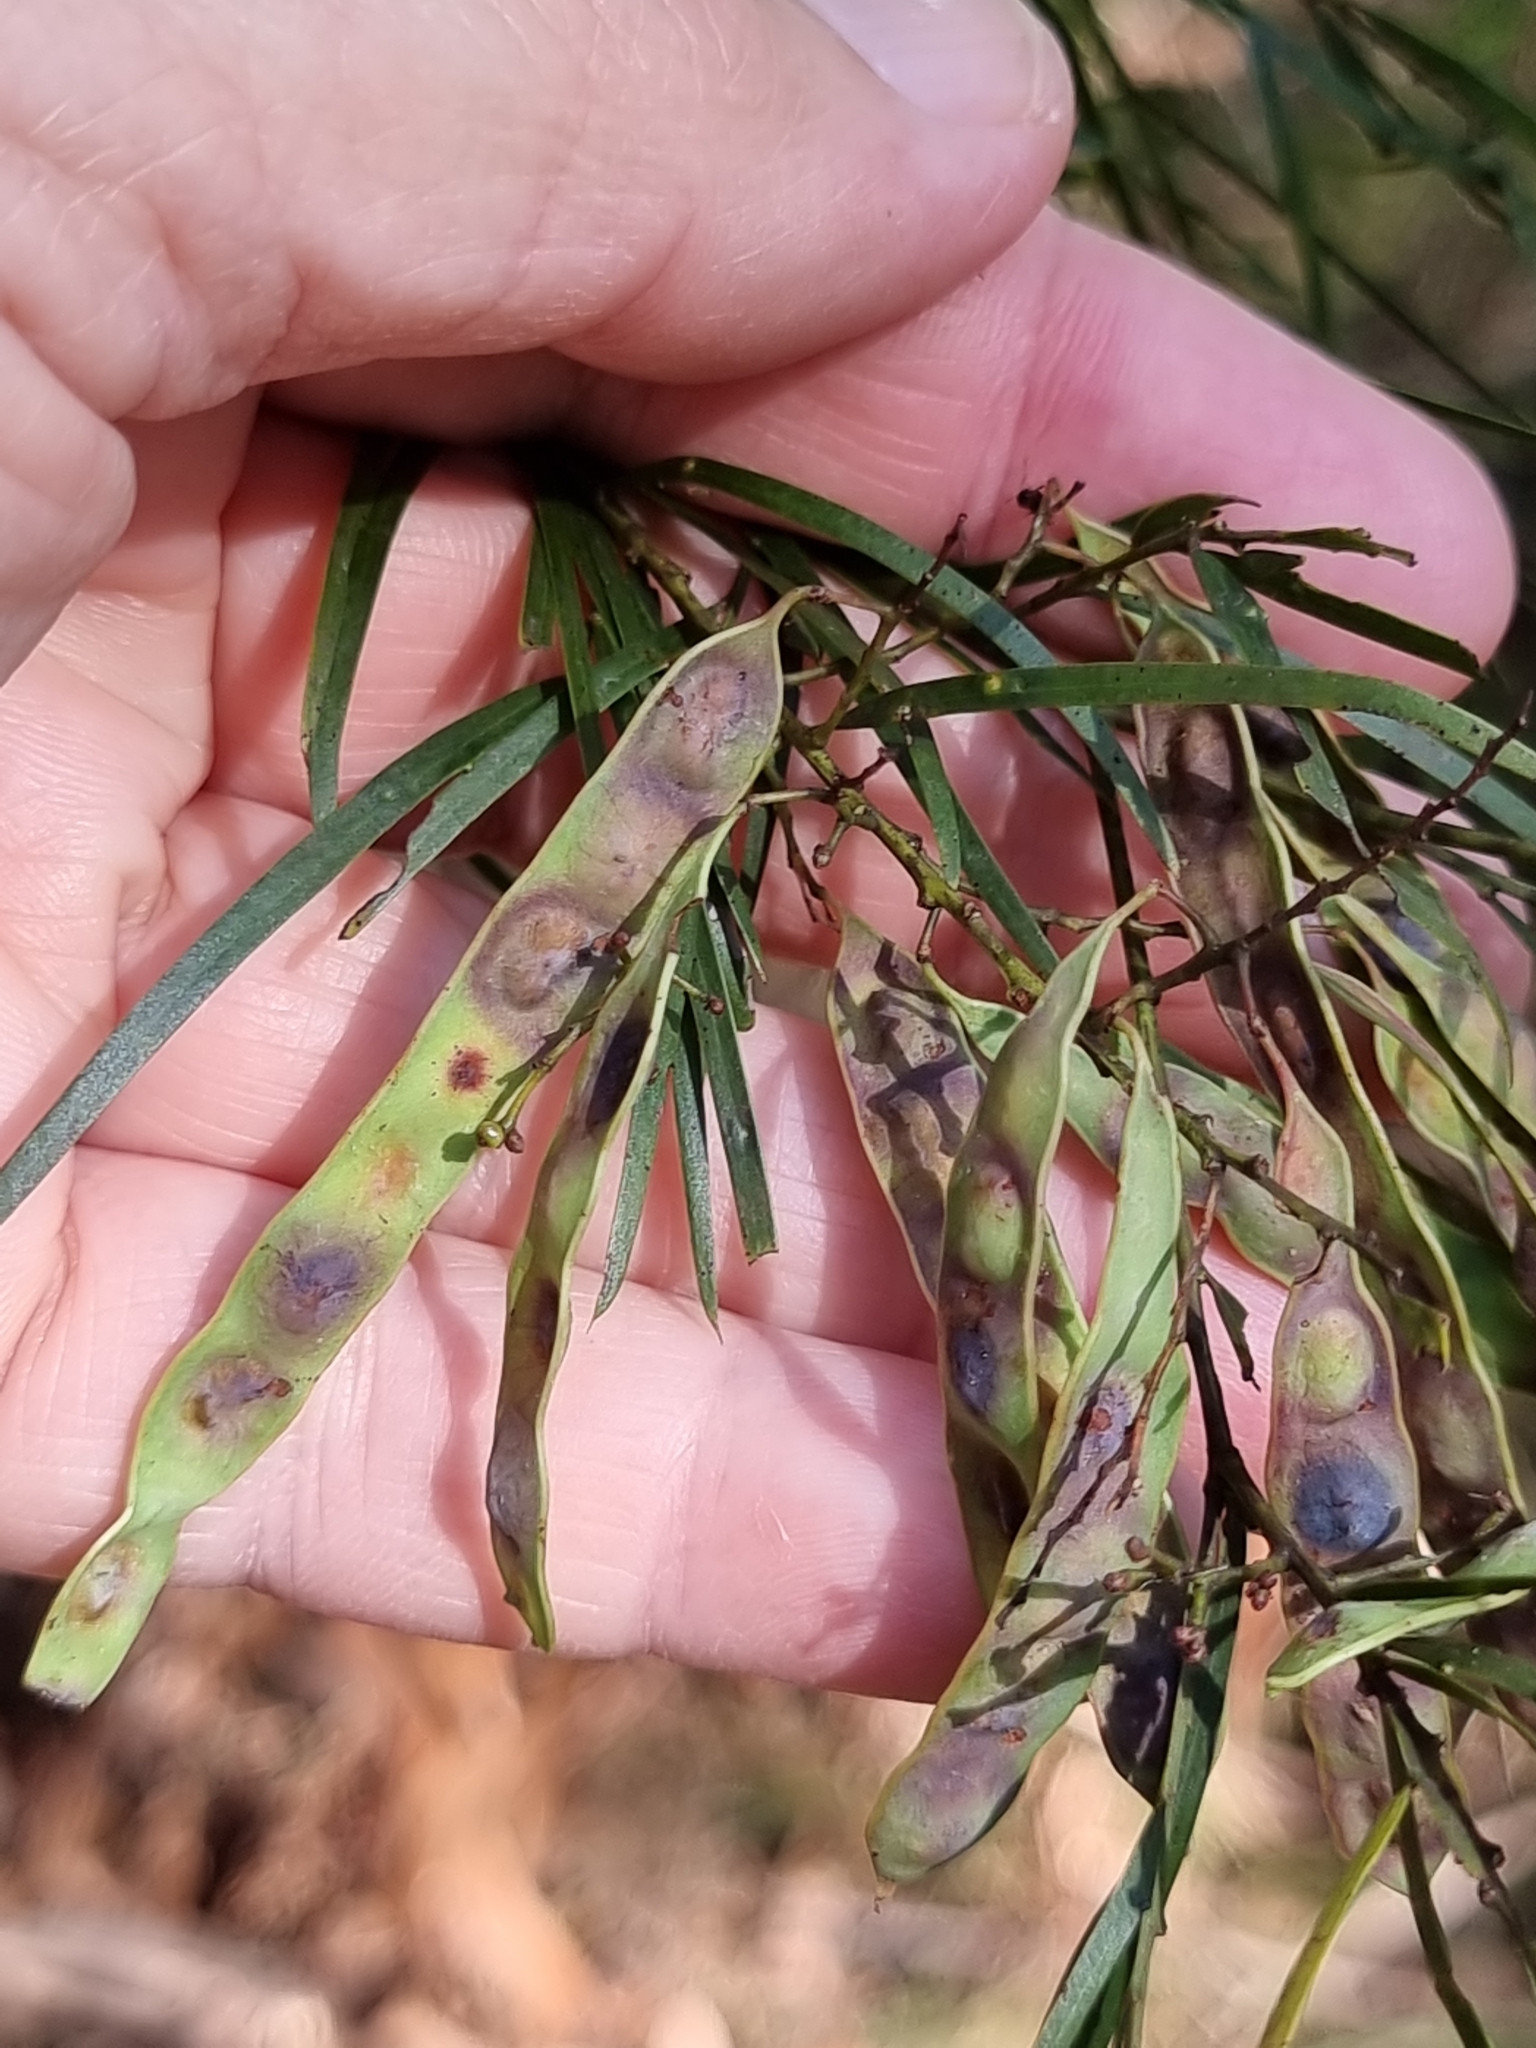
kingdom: Plantae
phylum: Tracheophyta
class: Magnoliopsida
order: Fabales
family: Fabaceae
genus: Acacia
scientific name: Acacia fimbriata
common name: Brisbane golden wattle
